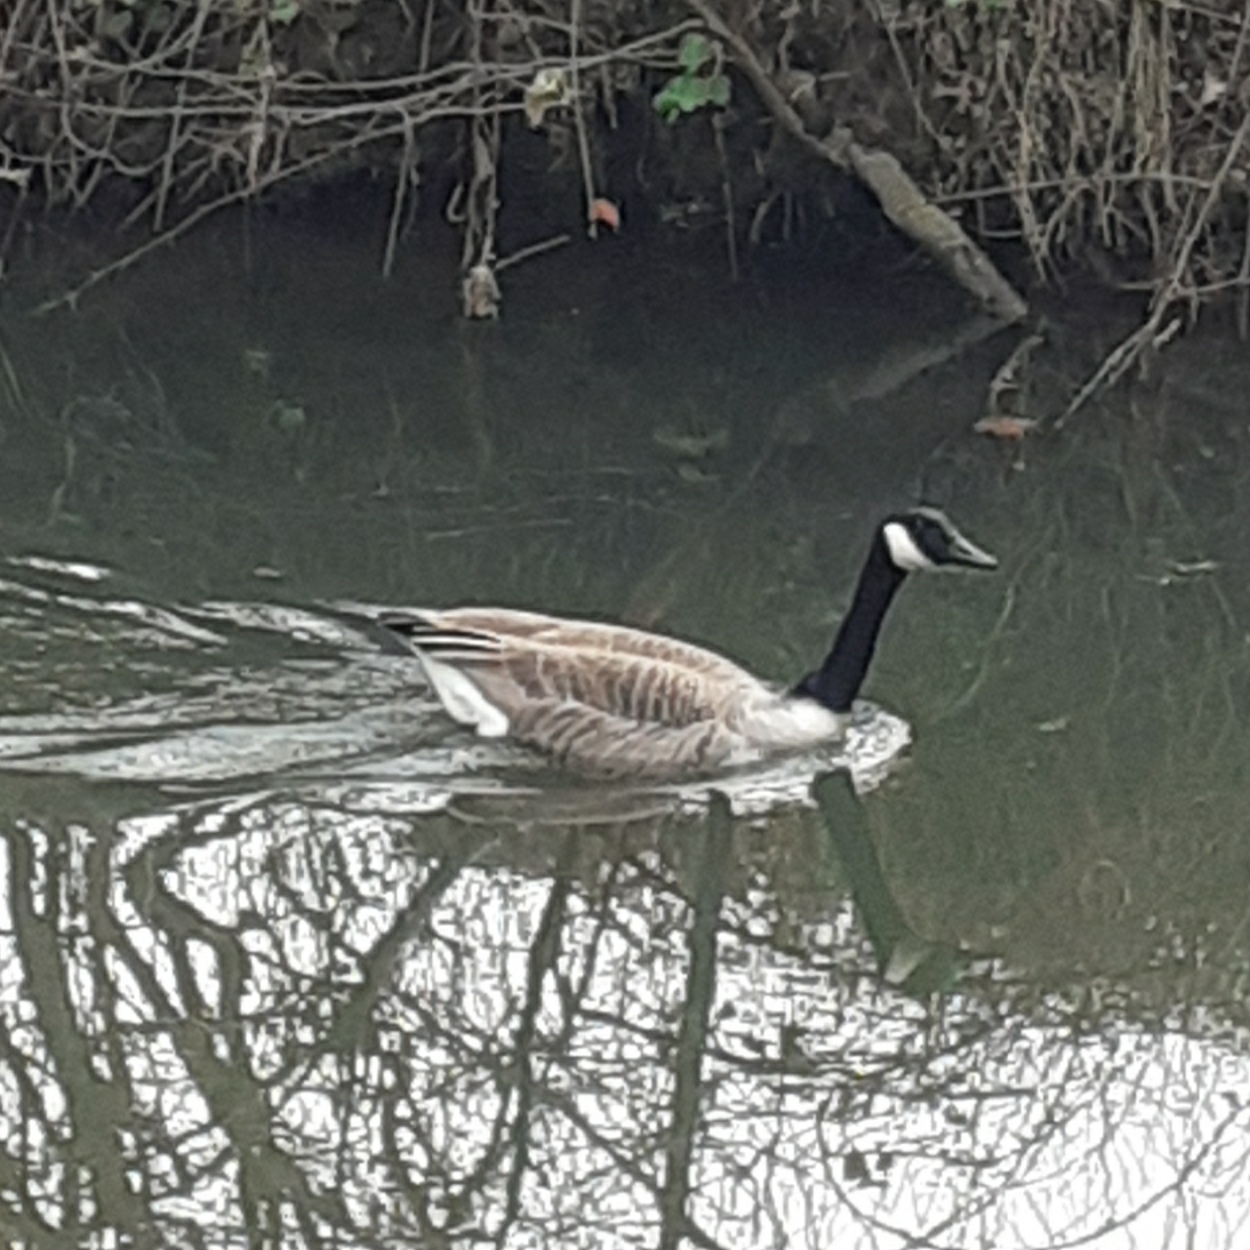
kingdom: Animalia
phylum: Chordata
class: Aves
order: Anseriformes
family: Anatidae
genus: Branta
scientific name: Branta canadensis
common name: Canada goose
